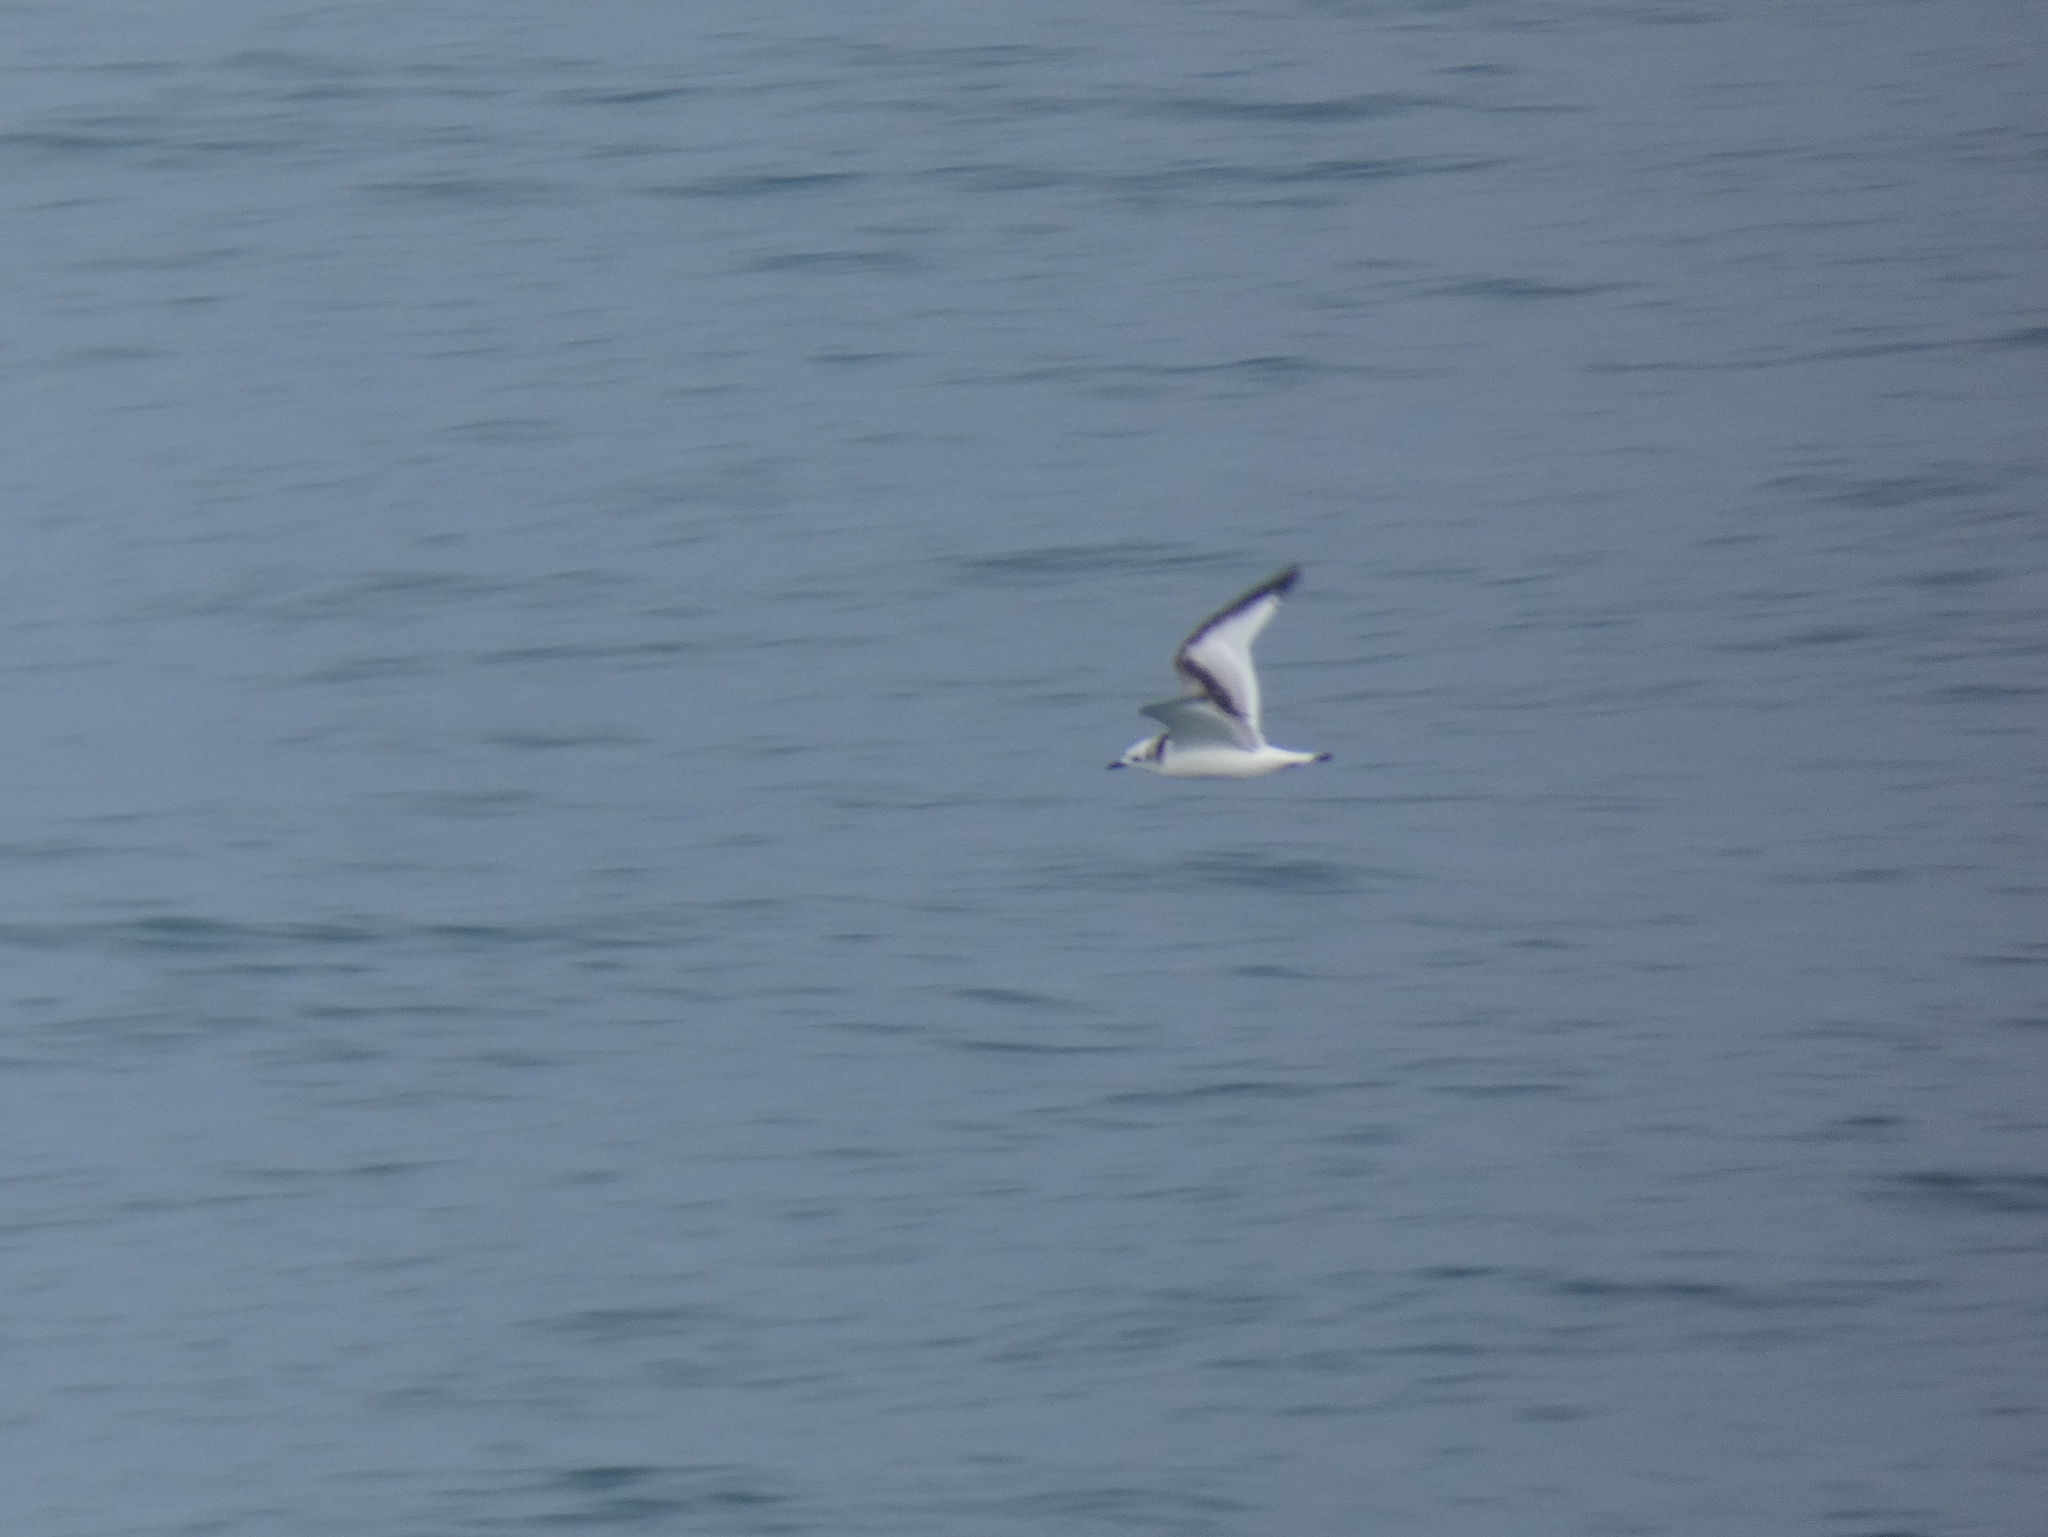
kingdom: Animalia
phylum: Chordata
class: Aves
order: Charadriiformes
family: Laridae
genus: Rissa
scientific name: Rissa tridactyla
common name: Black-legged kittiwake
